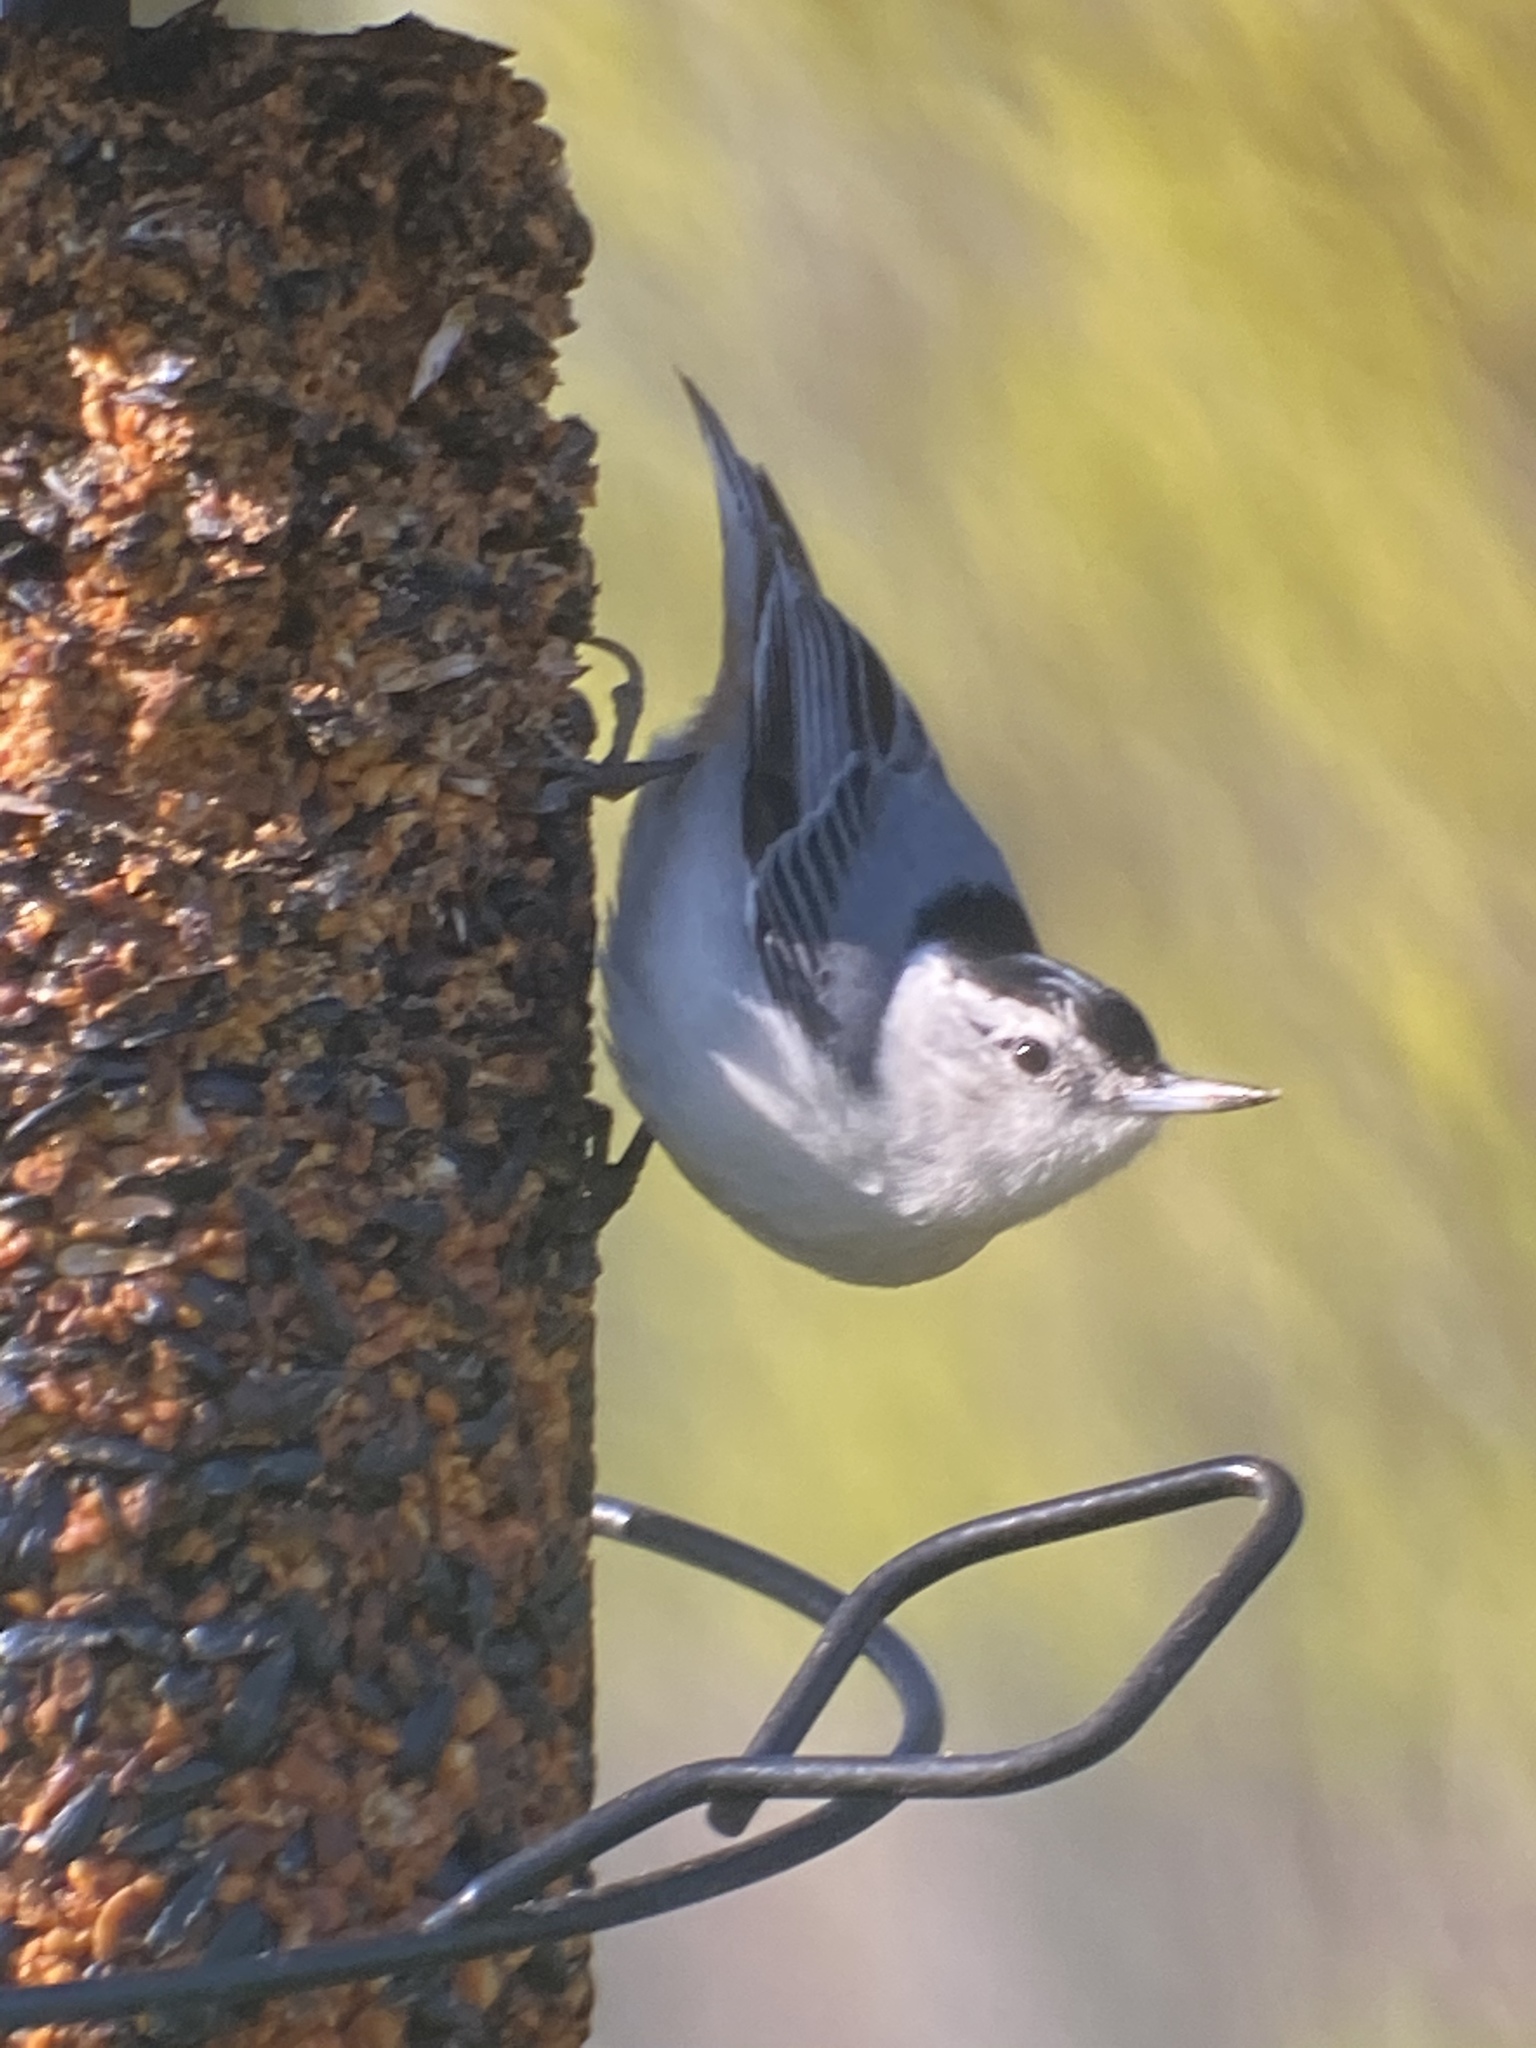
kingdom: Animalia
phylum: Chordata
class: Aves
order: Passeriformes
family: Sittidae
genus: Sitta
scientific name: Sitta carolinensis
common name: White-breasted nuthatch
